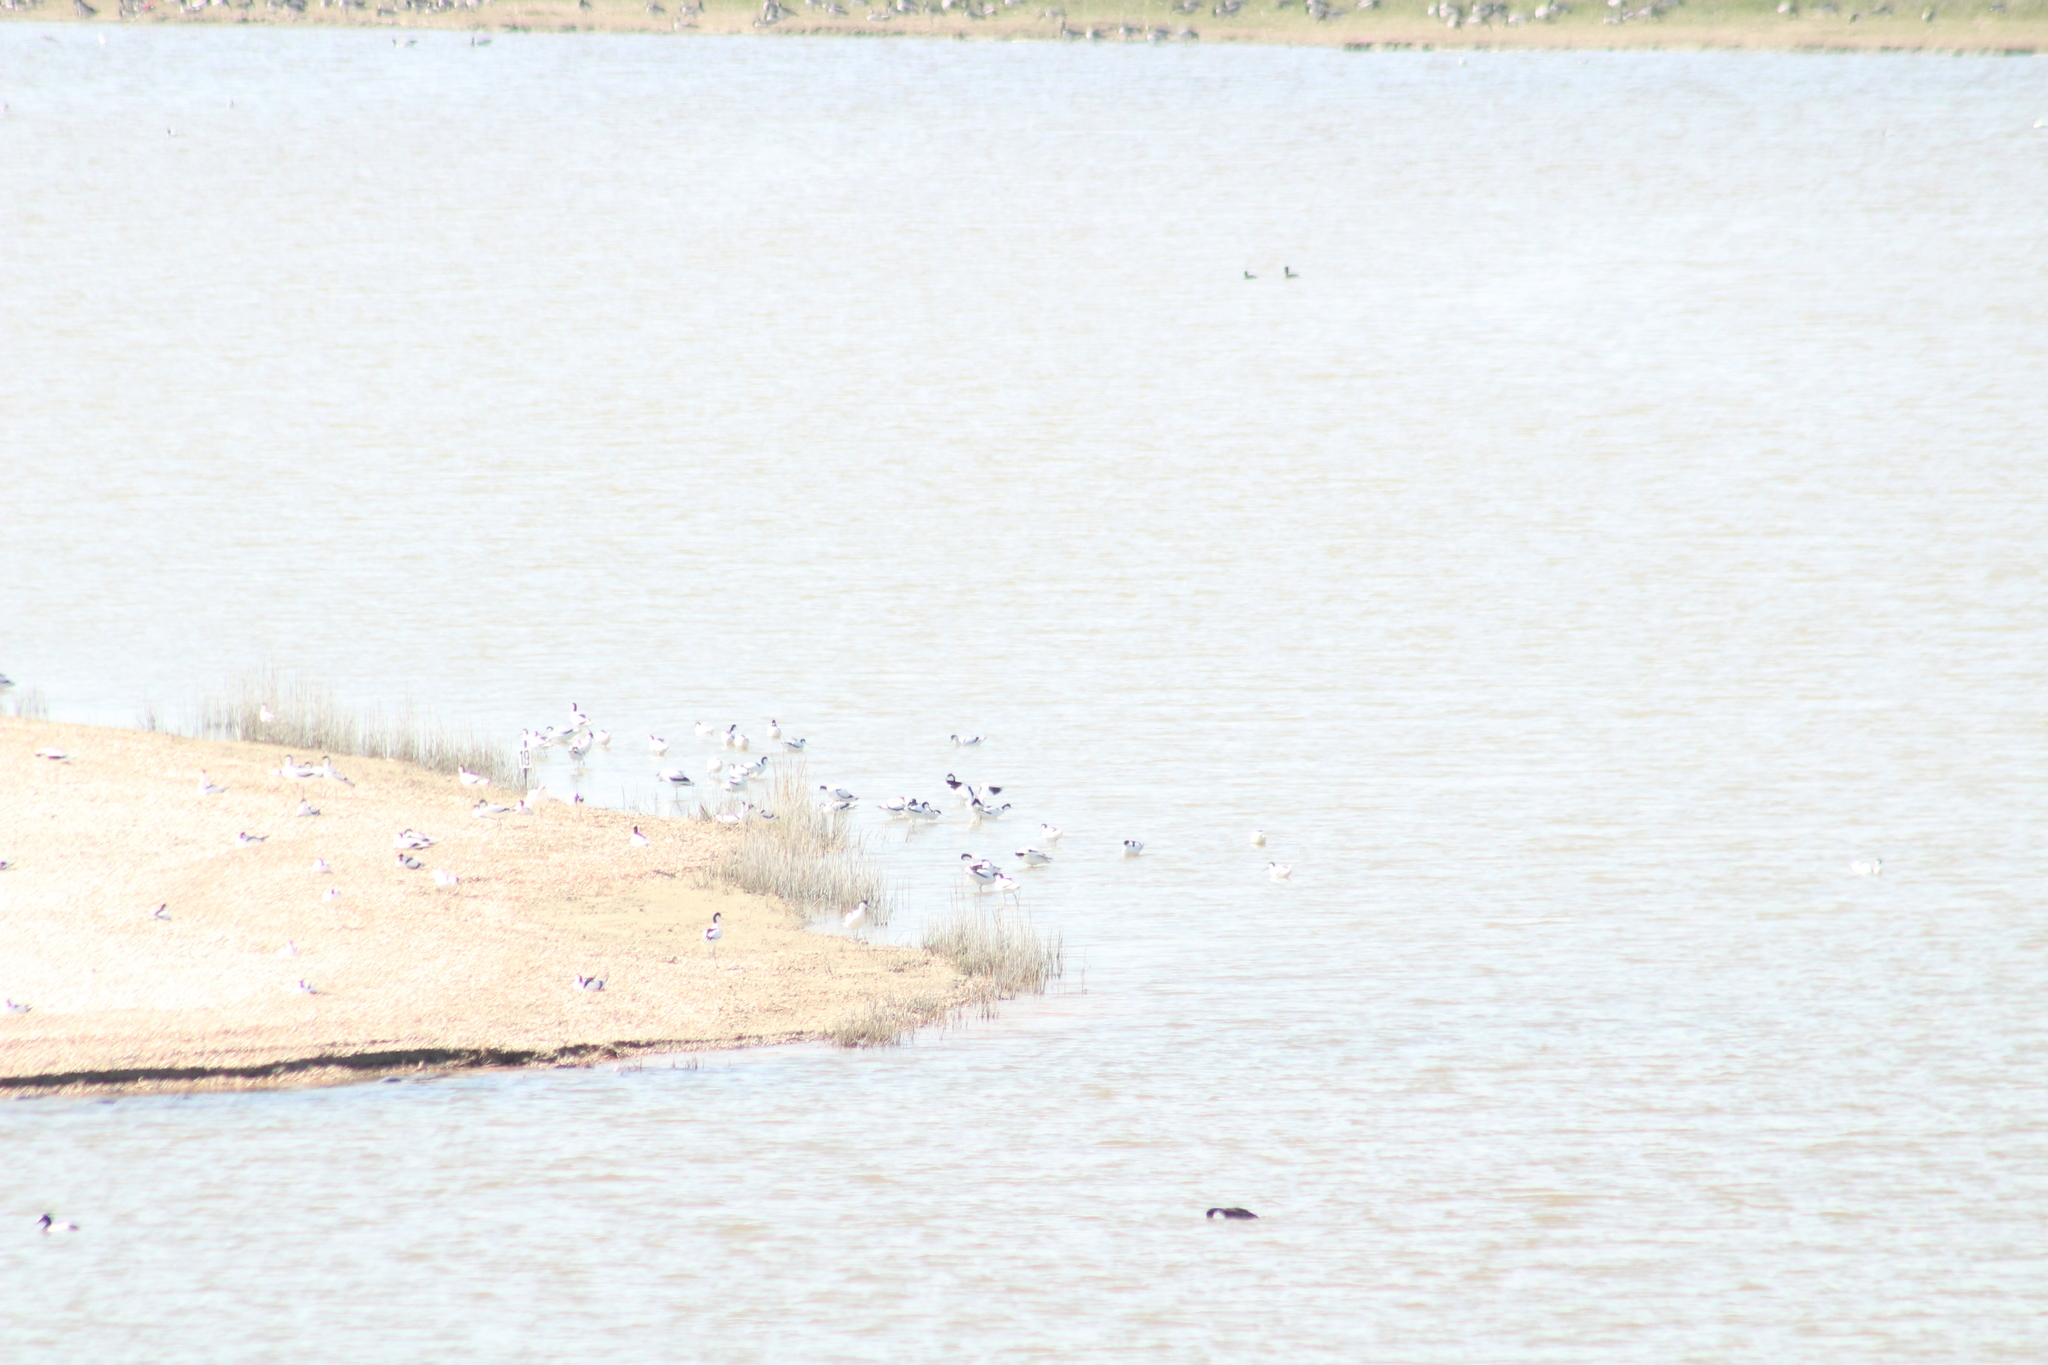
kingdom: Animalia
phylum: Chordata
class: Aves
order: Charadriiformes
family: Recurvirostridae
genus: Recurvirostra
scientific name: Recurvirostra avosetta
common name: Pied avocet
